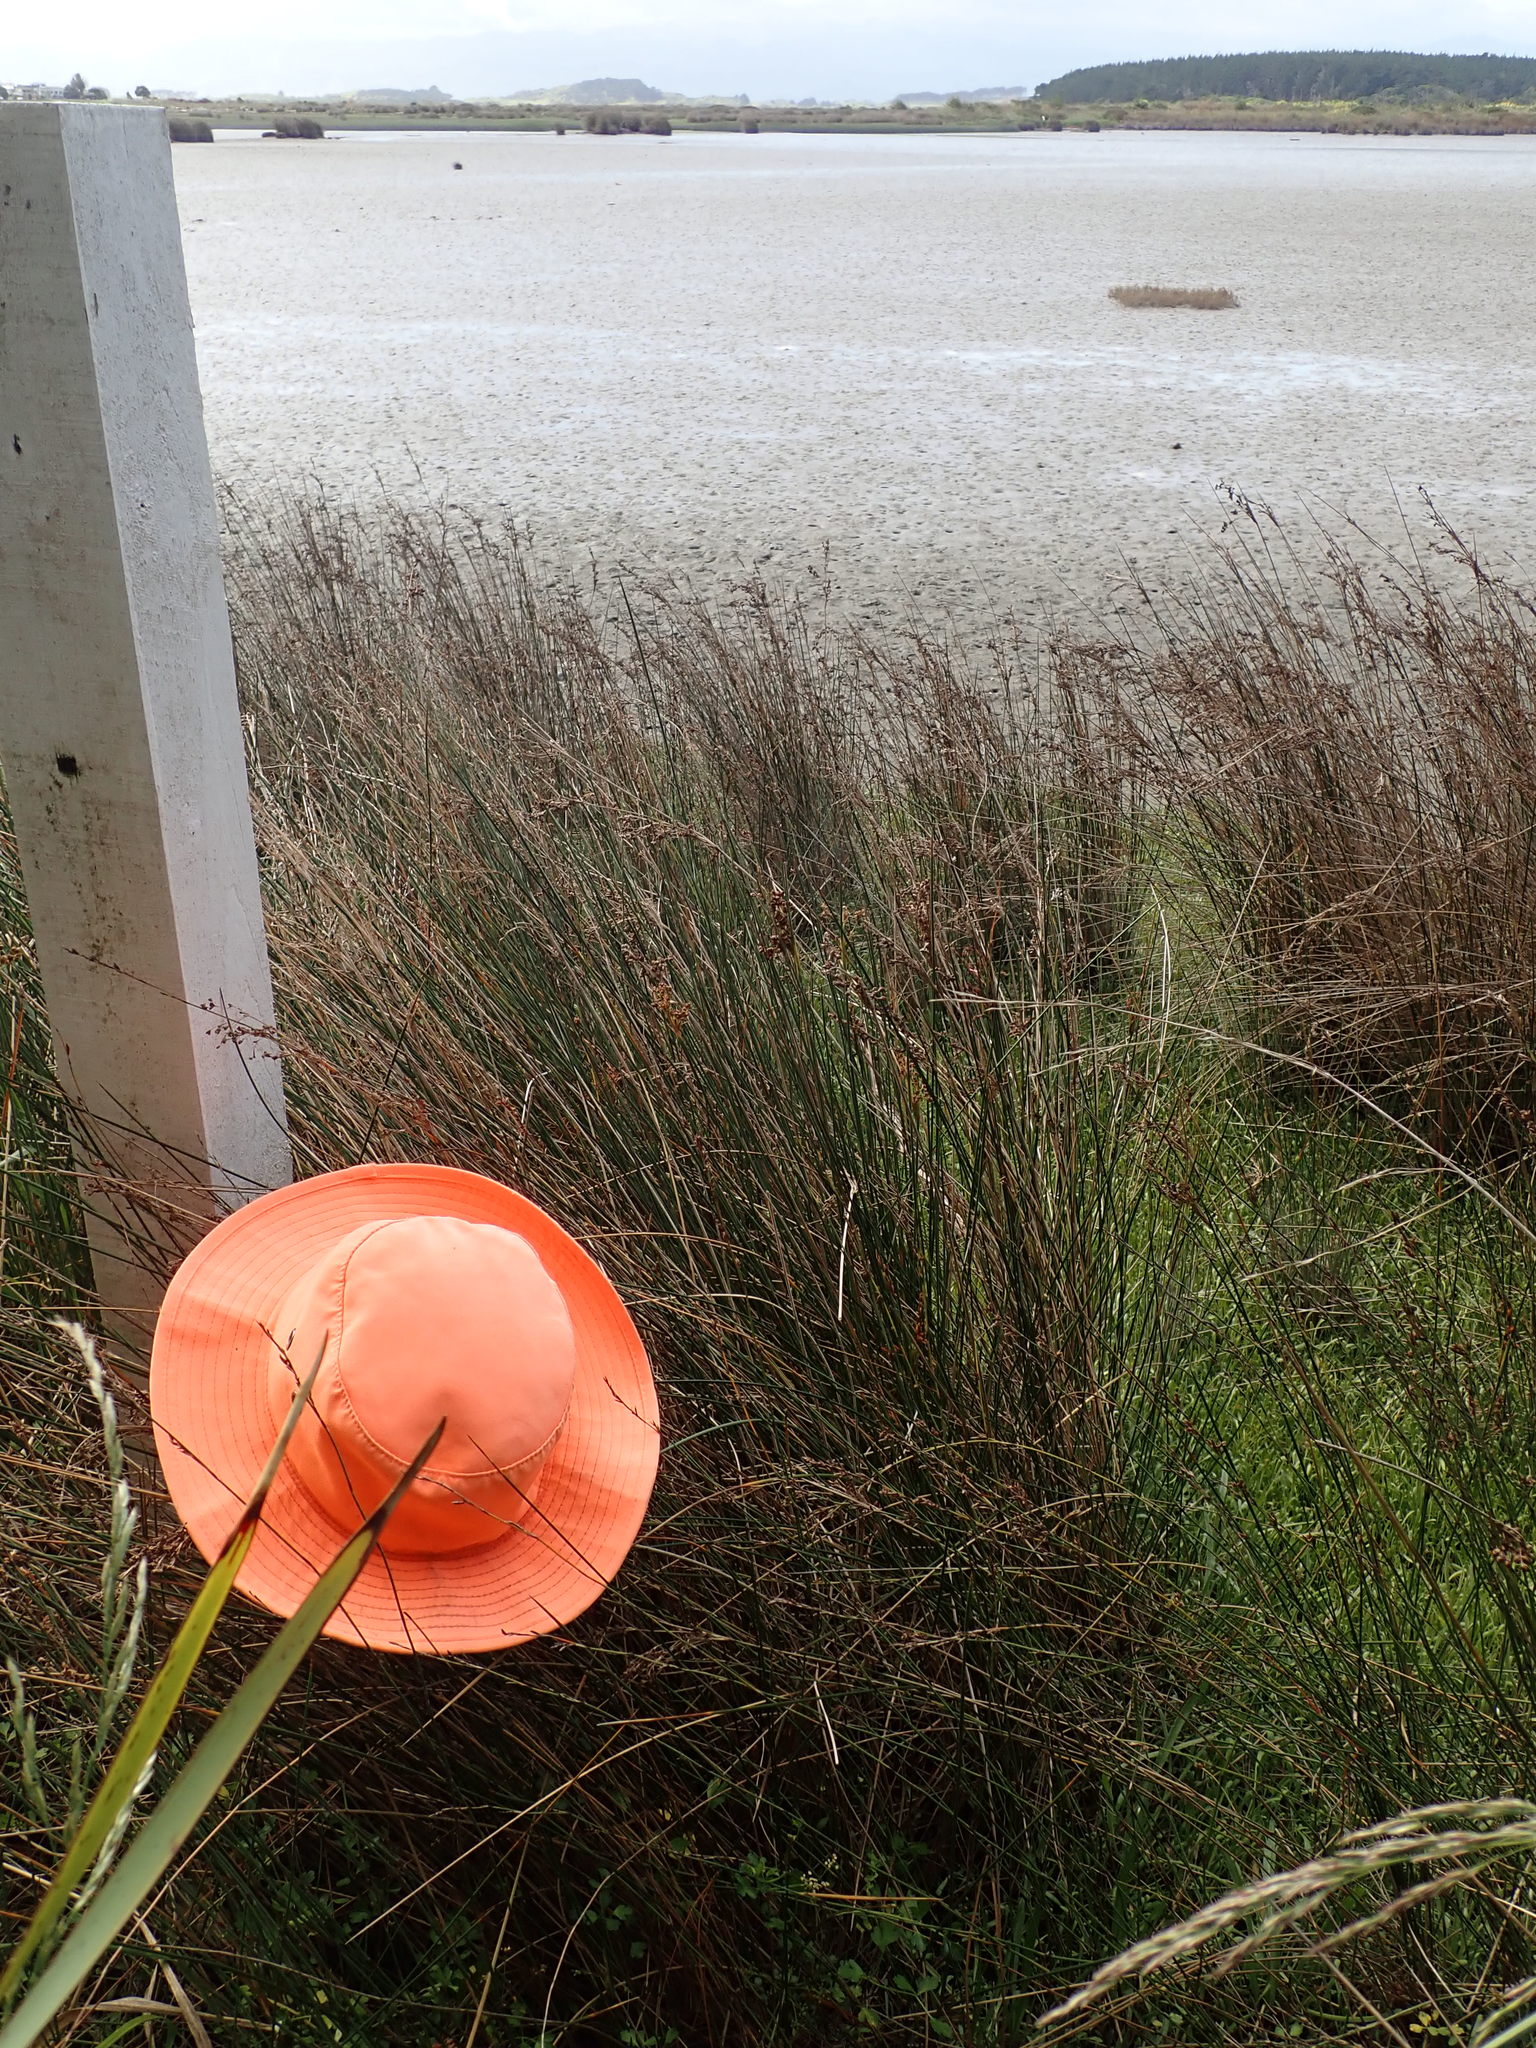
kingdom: Plantae
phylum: Tracheophyta
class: Magnoliopsida
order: Asterales
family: Goodeniaceae
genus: Goodenia
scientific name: Goodenia radicans
